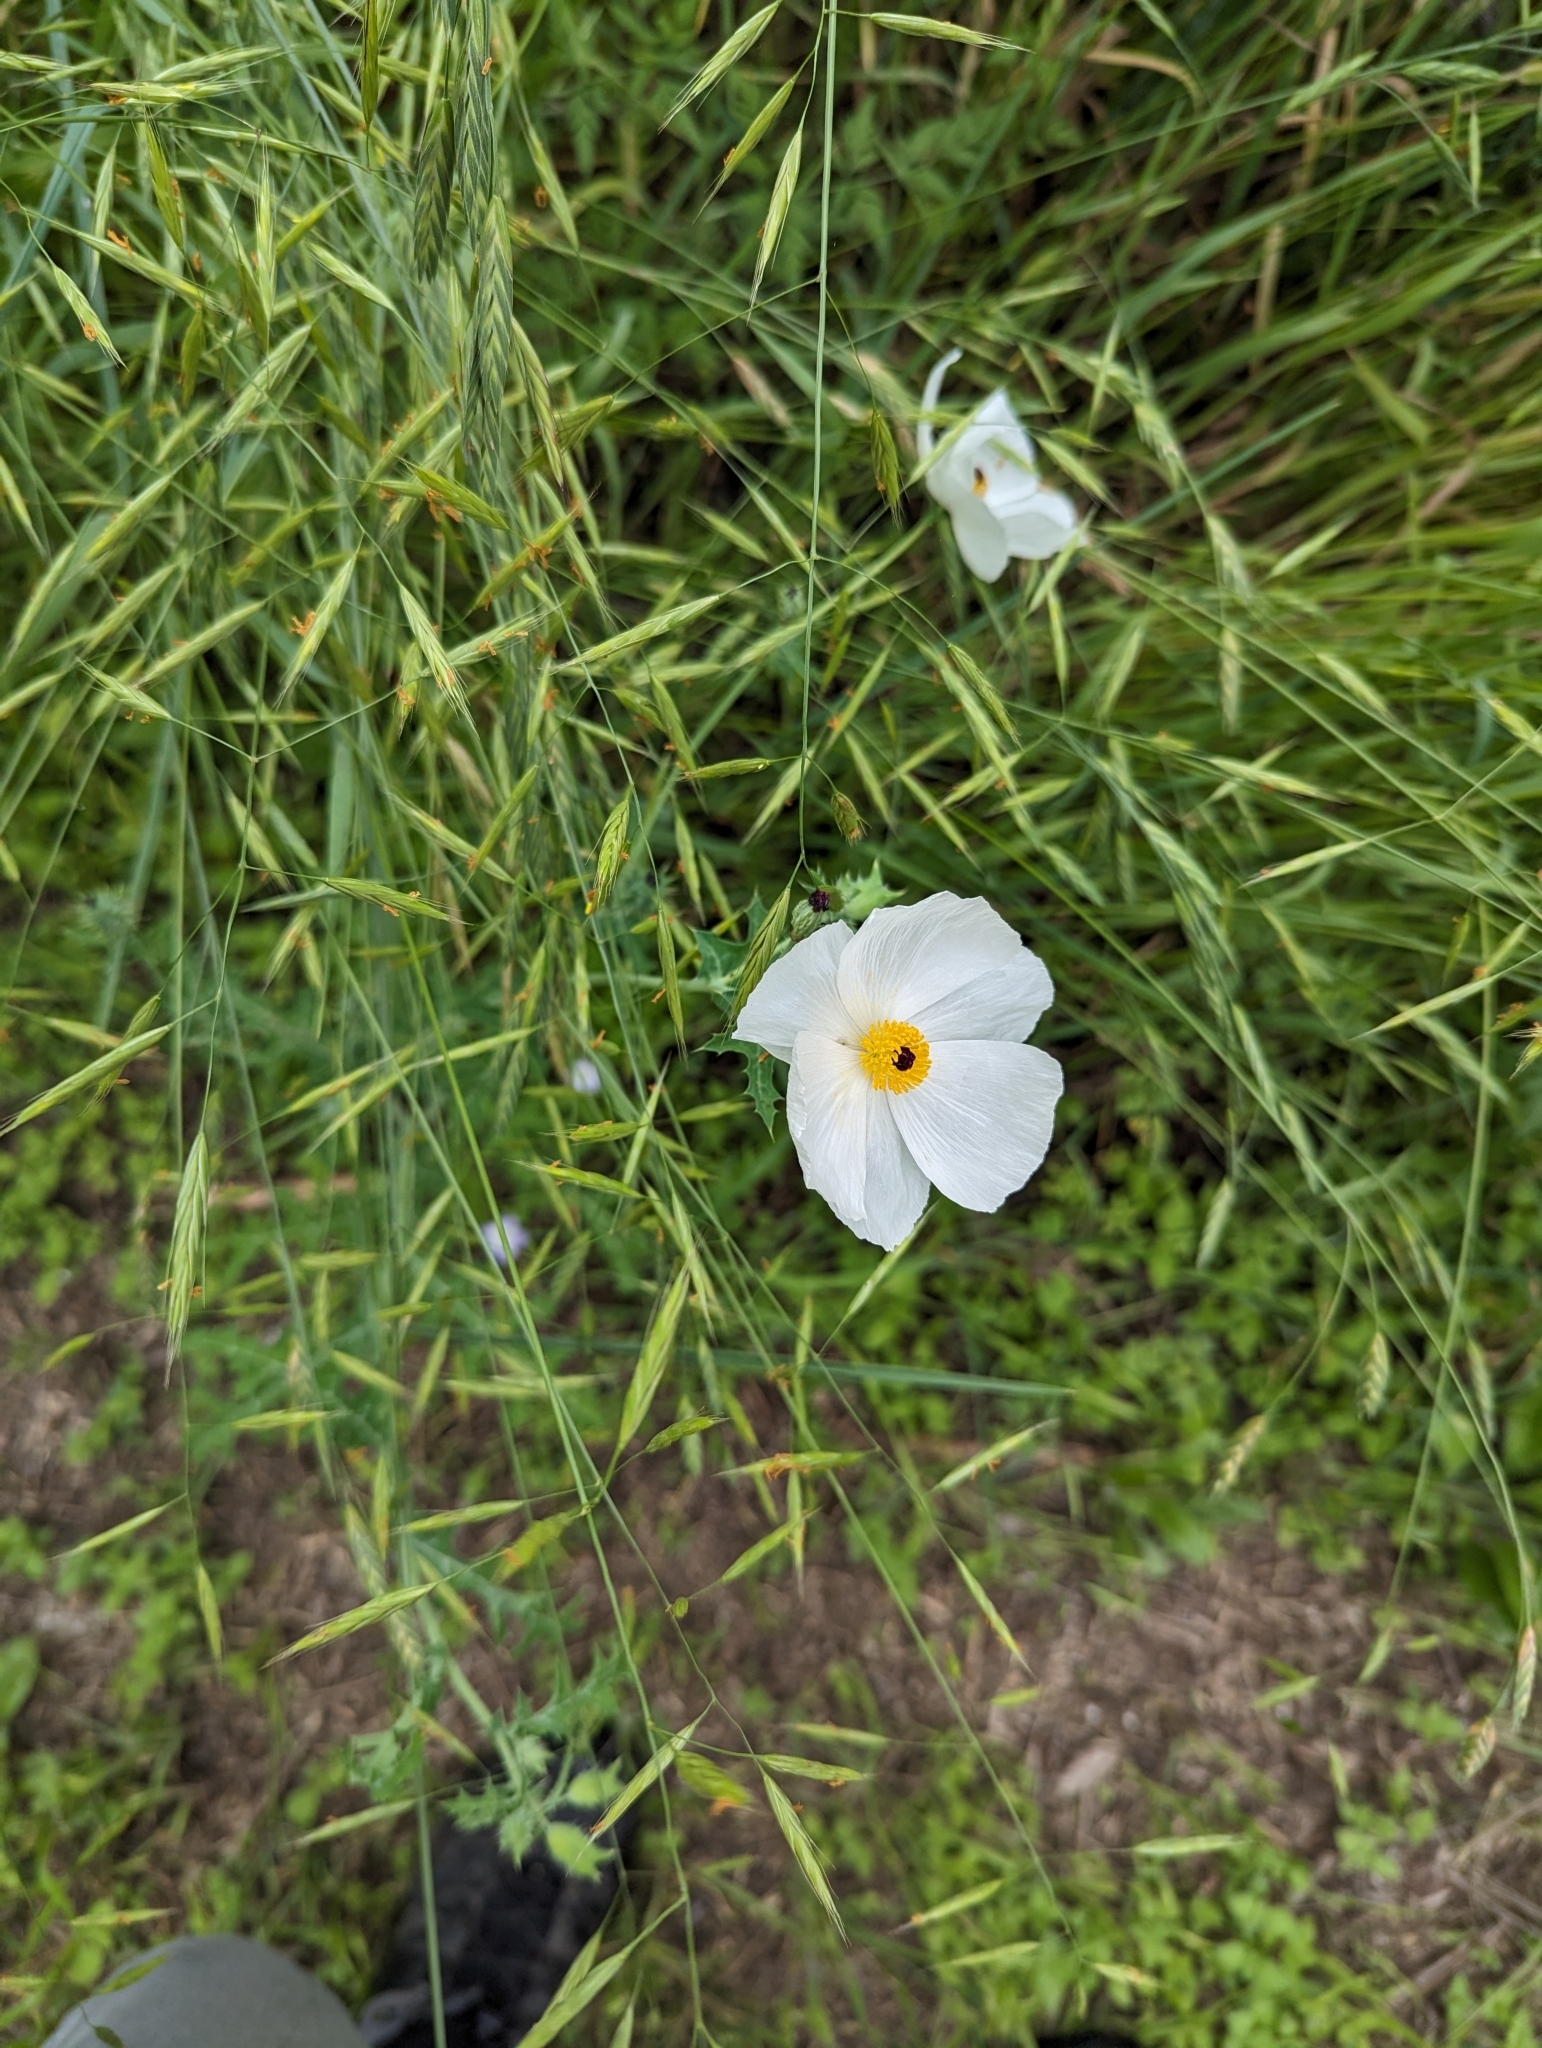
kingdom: Plantae
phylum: Tracheophyta
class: Magnoliopsida
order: Ranunculales
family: Papaveraceae
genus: Argemone
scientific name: Argemone albiflora
